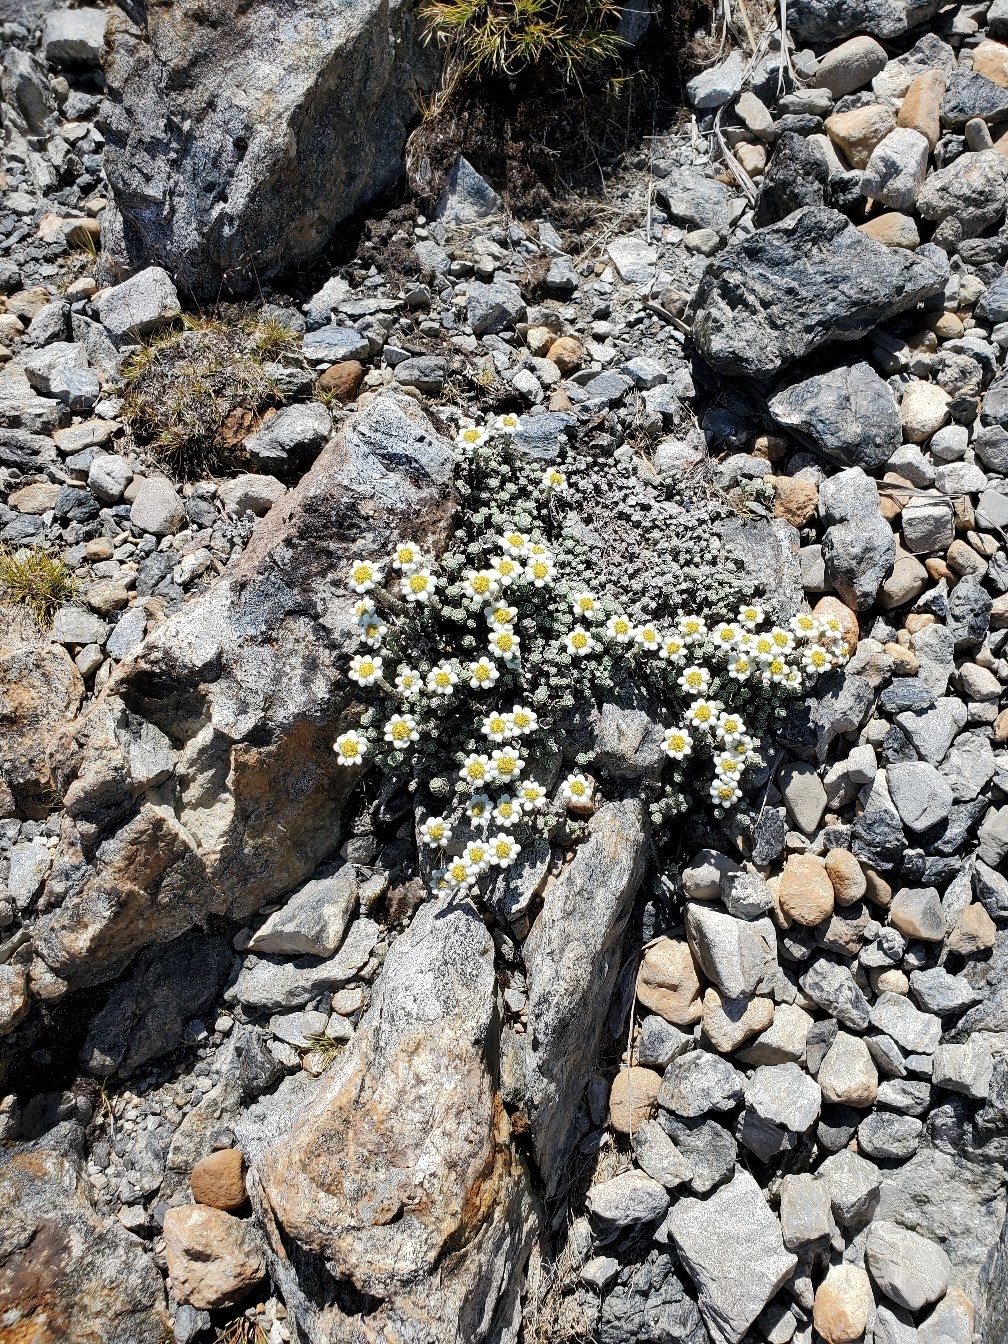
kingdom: Plantae
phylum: Tracheophyta
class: Magnoliopsida
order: Asterales
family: Asteraceae
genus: Leucogenes
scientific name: Leucogenes grandiceps
